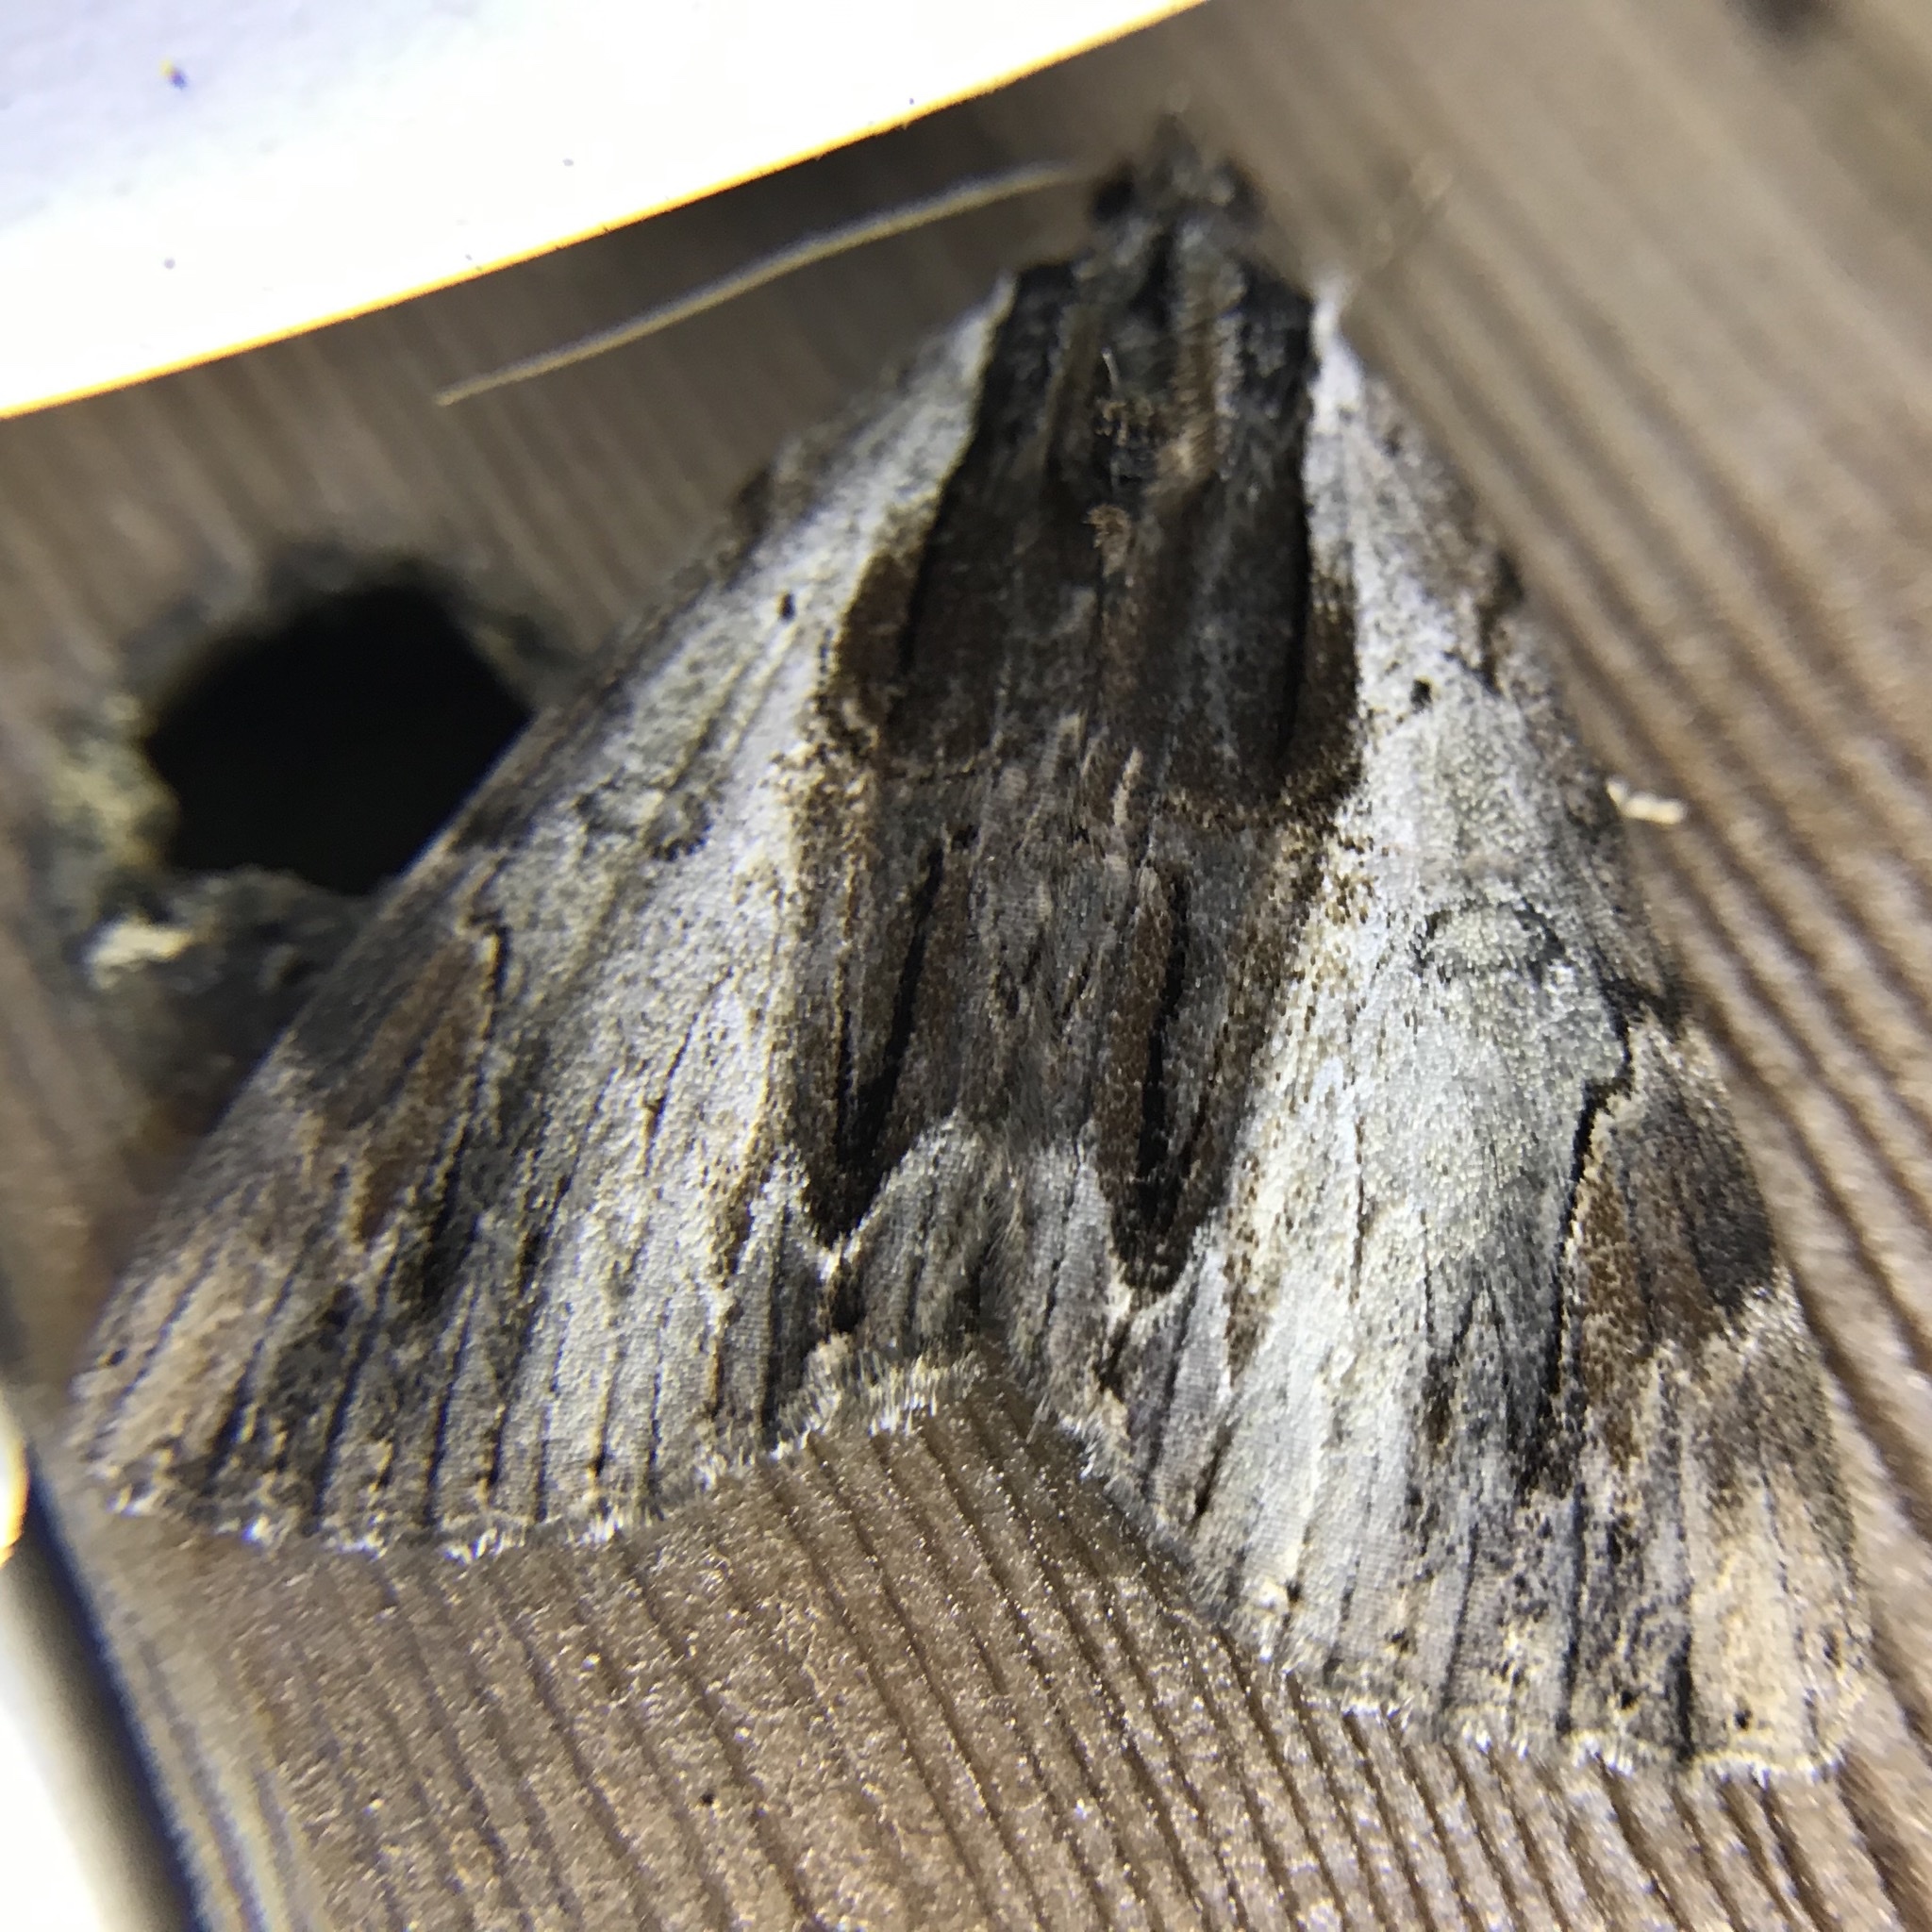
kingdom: Animalia
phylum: Arthropoda
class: Insecta
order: Lepidoptera
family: Erebidae
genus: Catocala
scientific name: Catocala ultronia
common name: Ultronia underwing
